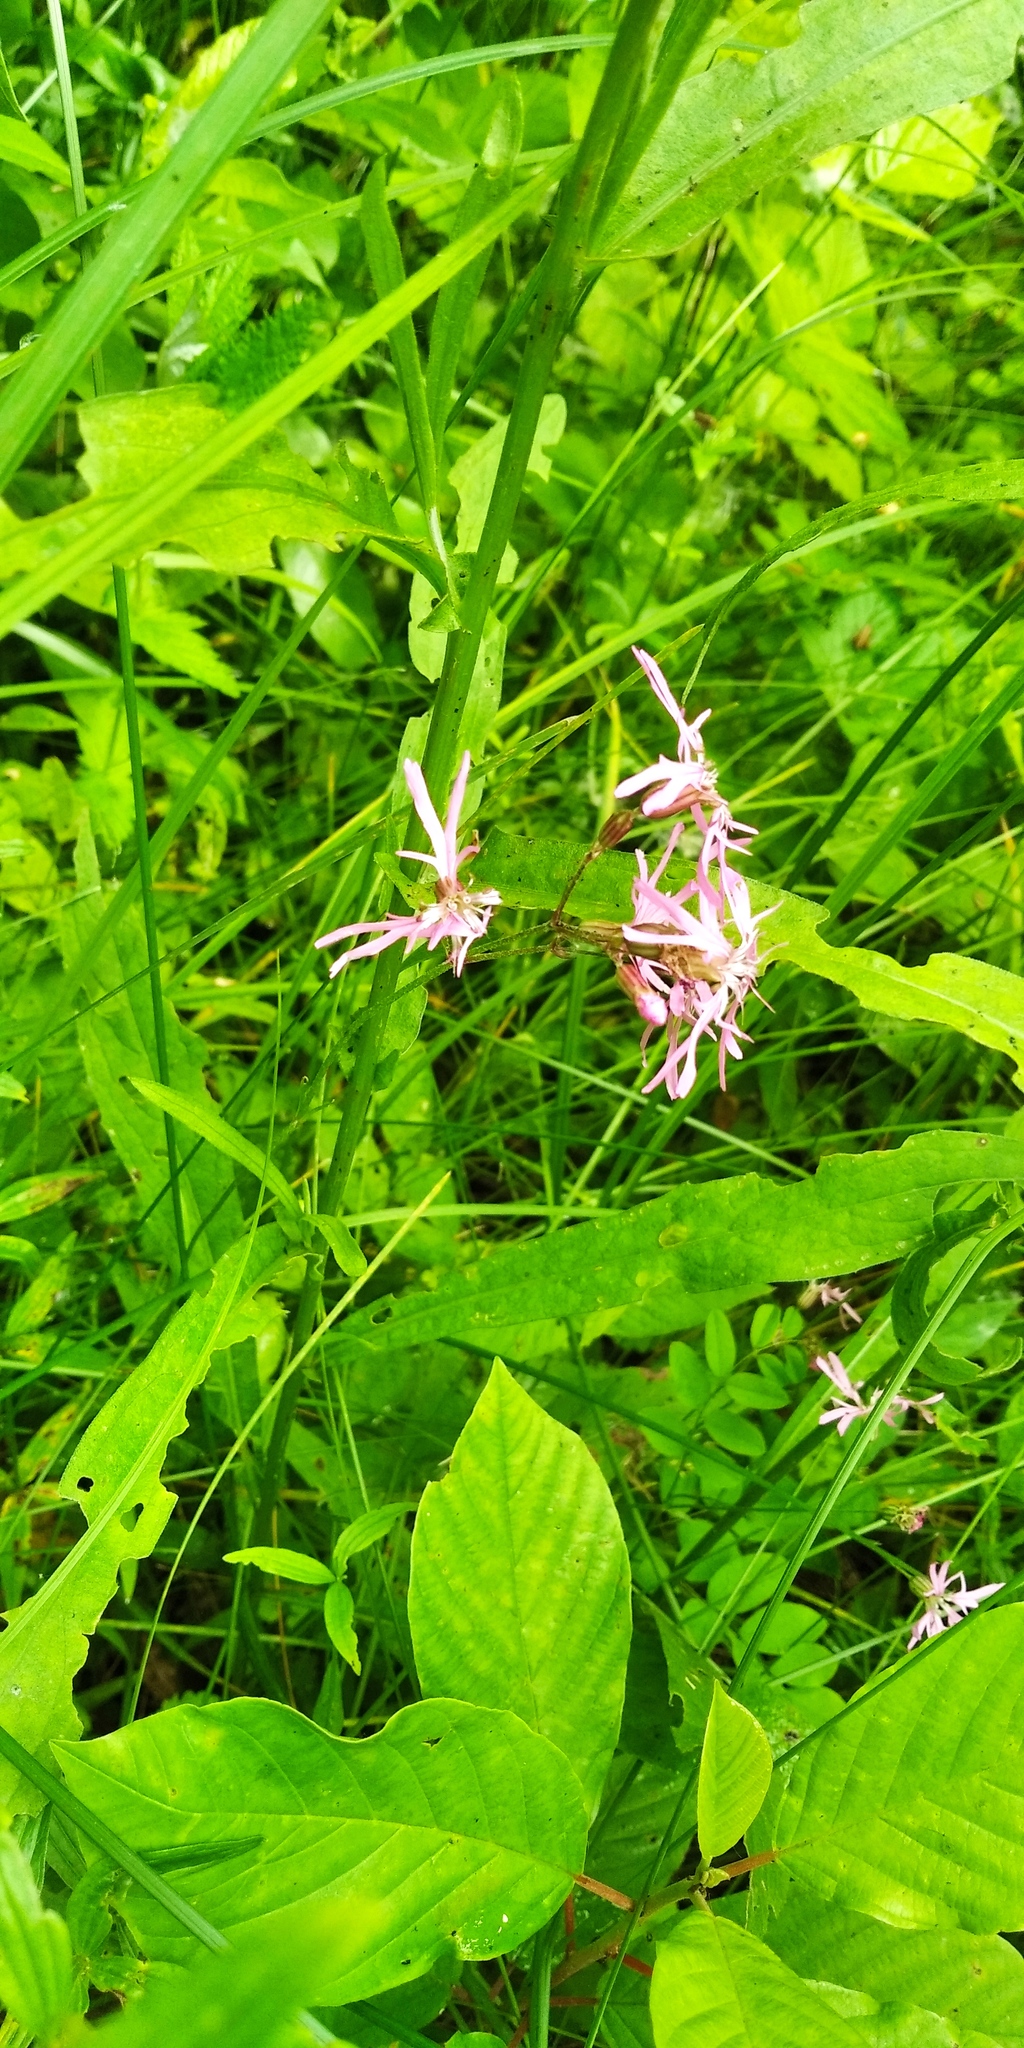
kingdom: Plantae
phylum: Tracheophyta
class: Magnoliopsida
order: Caryophyllales
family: Caryophyllaceae
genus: Silene
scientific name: Silene flos-cuculi
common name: Ragged-robin
